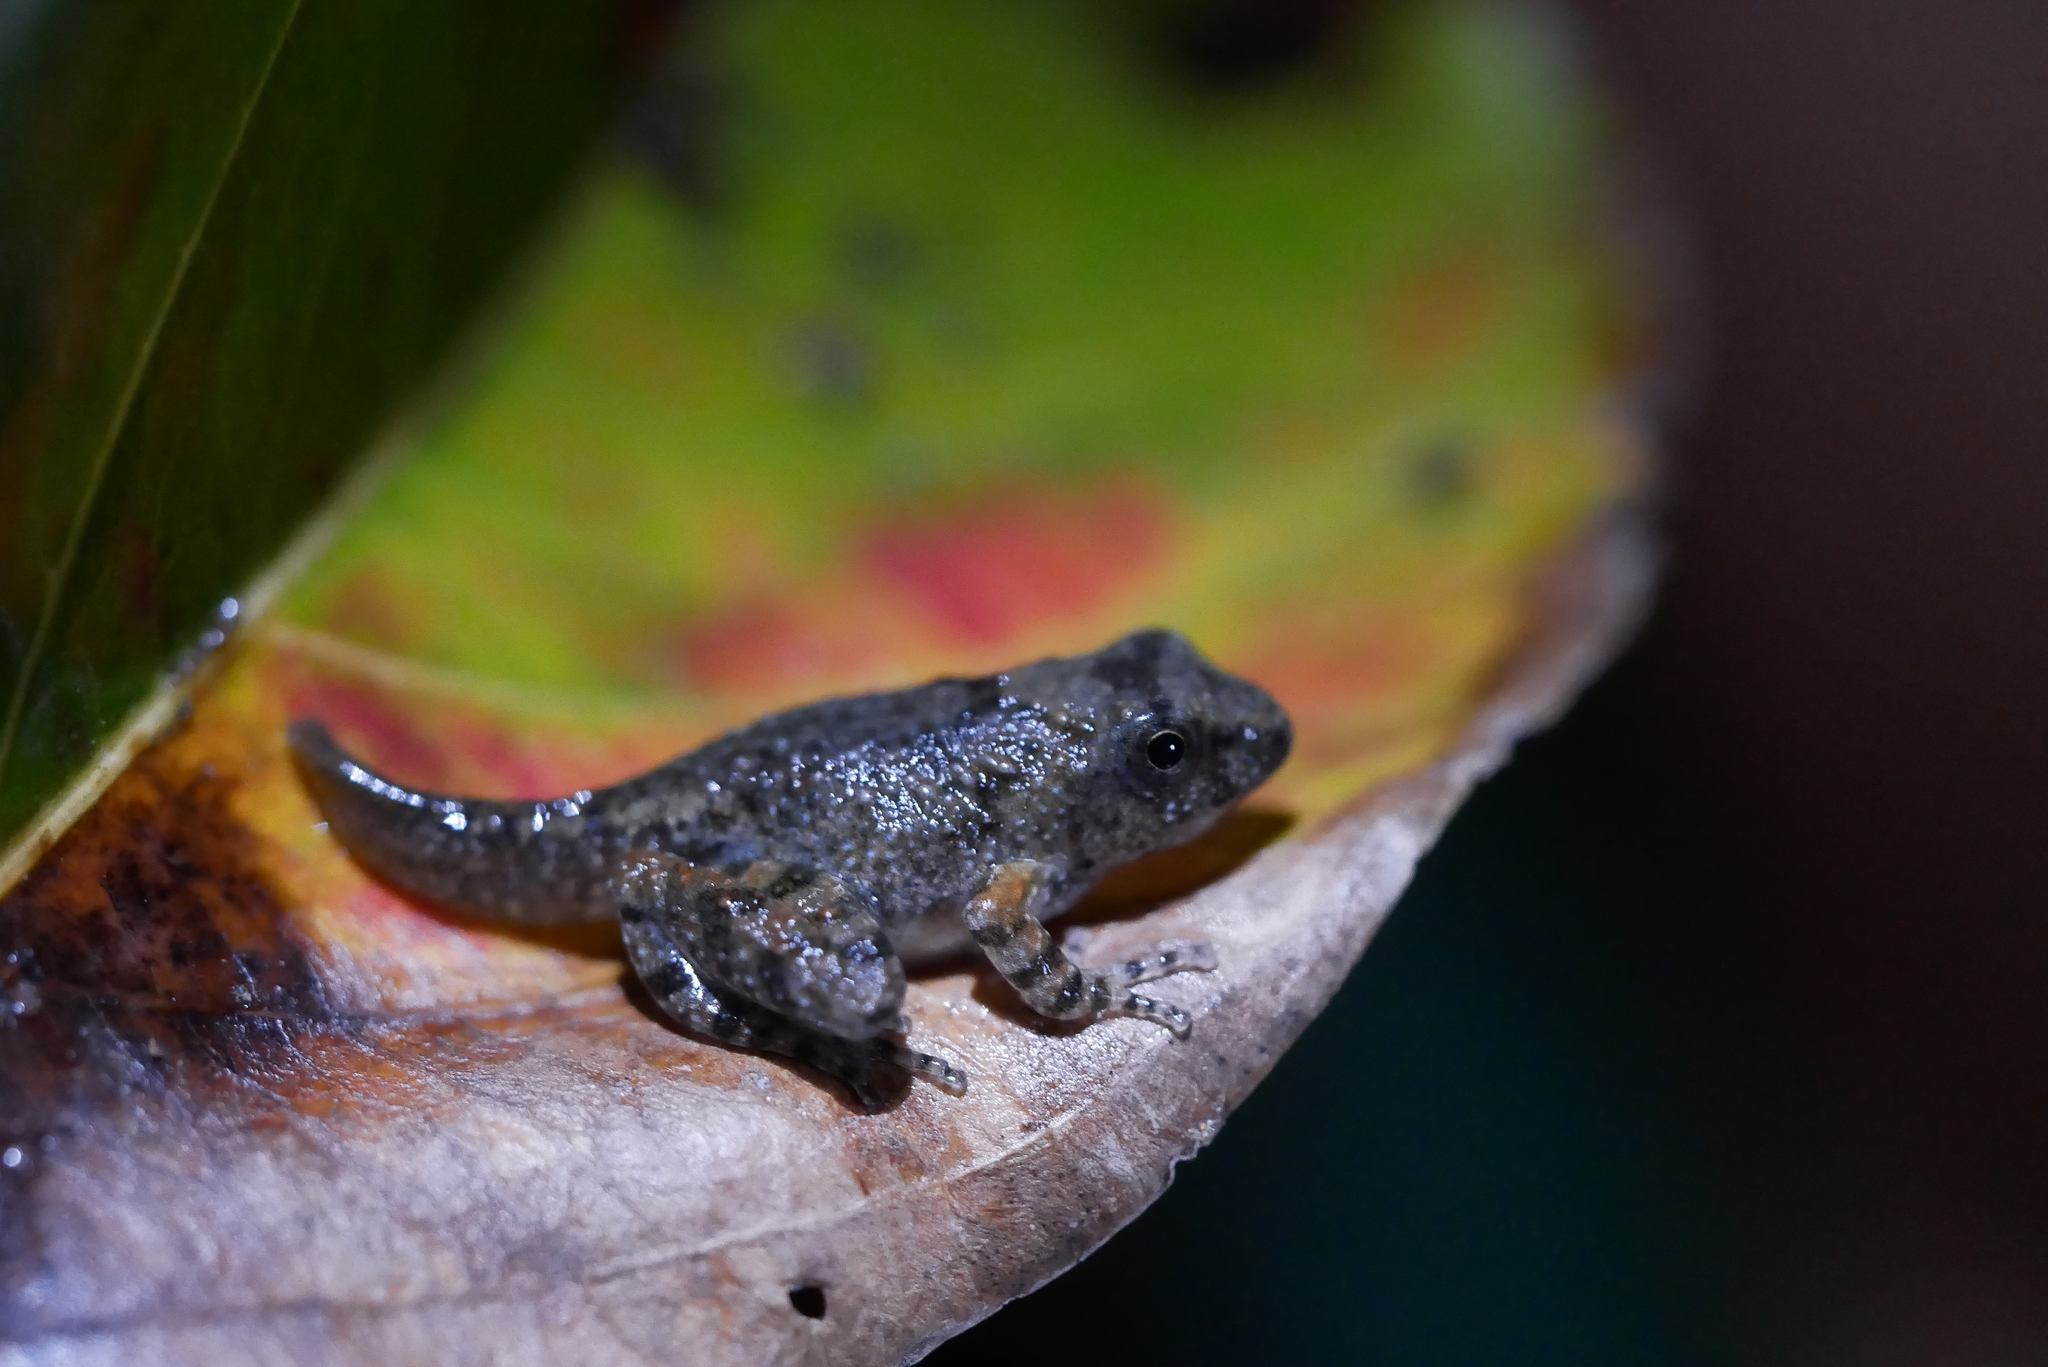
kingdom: Animalia
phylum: Chordata
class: Amphibia
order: Anura
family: Rhacophoridae
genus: Buergeria
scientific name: Buergeria otai
